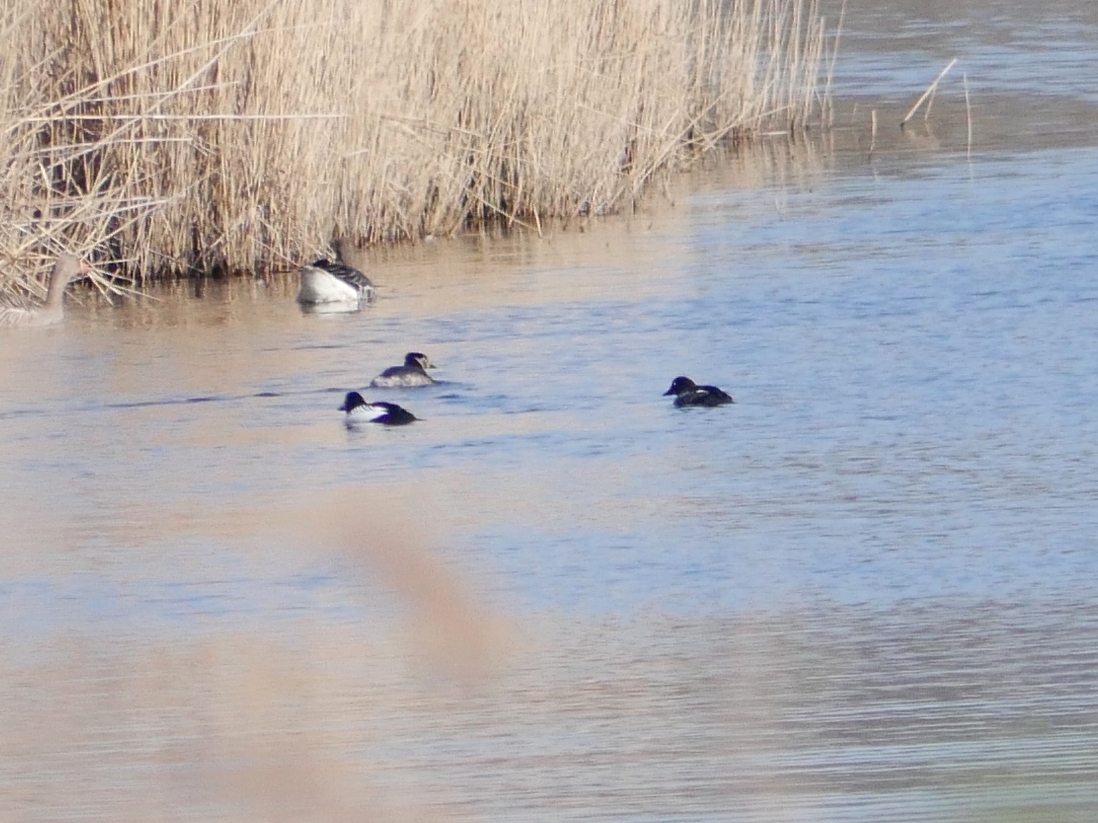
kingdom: Animalia
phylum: Chordata
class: Aves
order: Anseriformes
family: Anatidae
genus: Bucephala
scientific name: Bucephala clangula
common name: Common goldeneye
